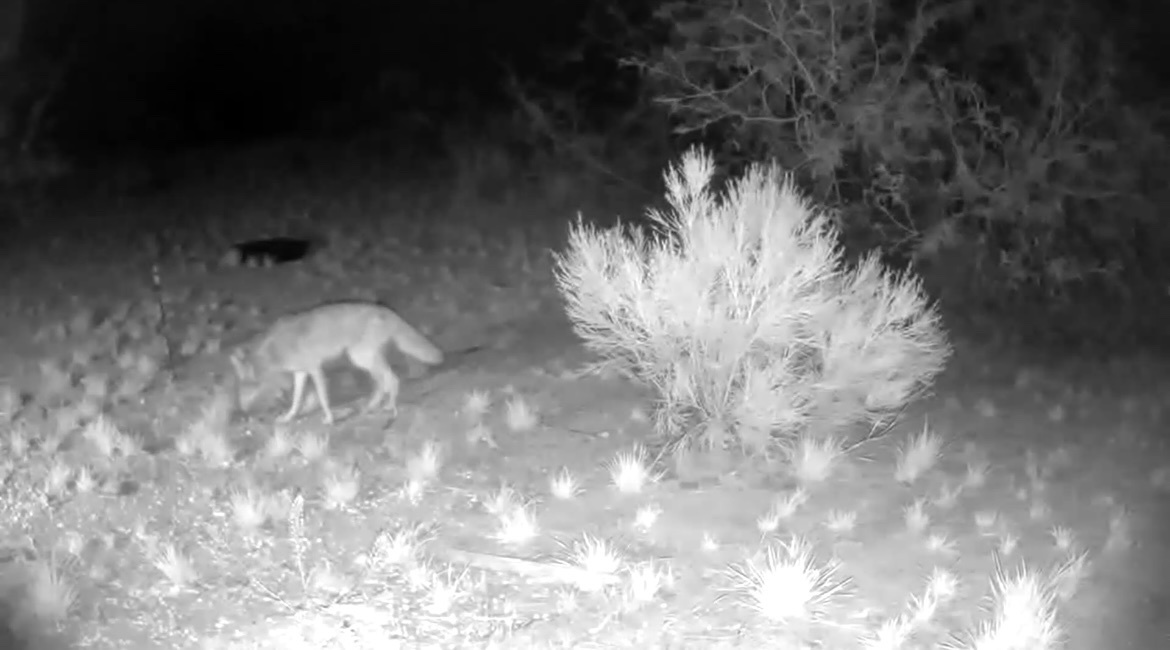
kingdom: Animalia
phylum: Chordata
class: Mammalia
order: Carnivora
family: Canidae
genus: Canis
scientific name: Canis latrans
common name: Coyote
